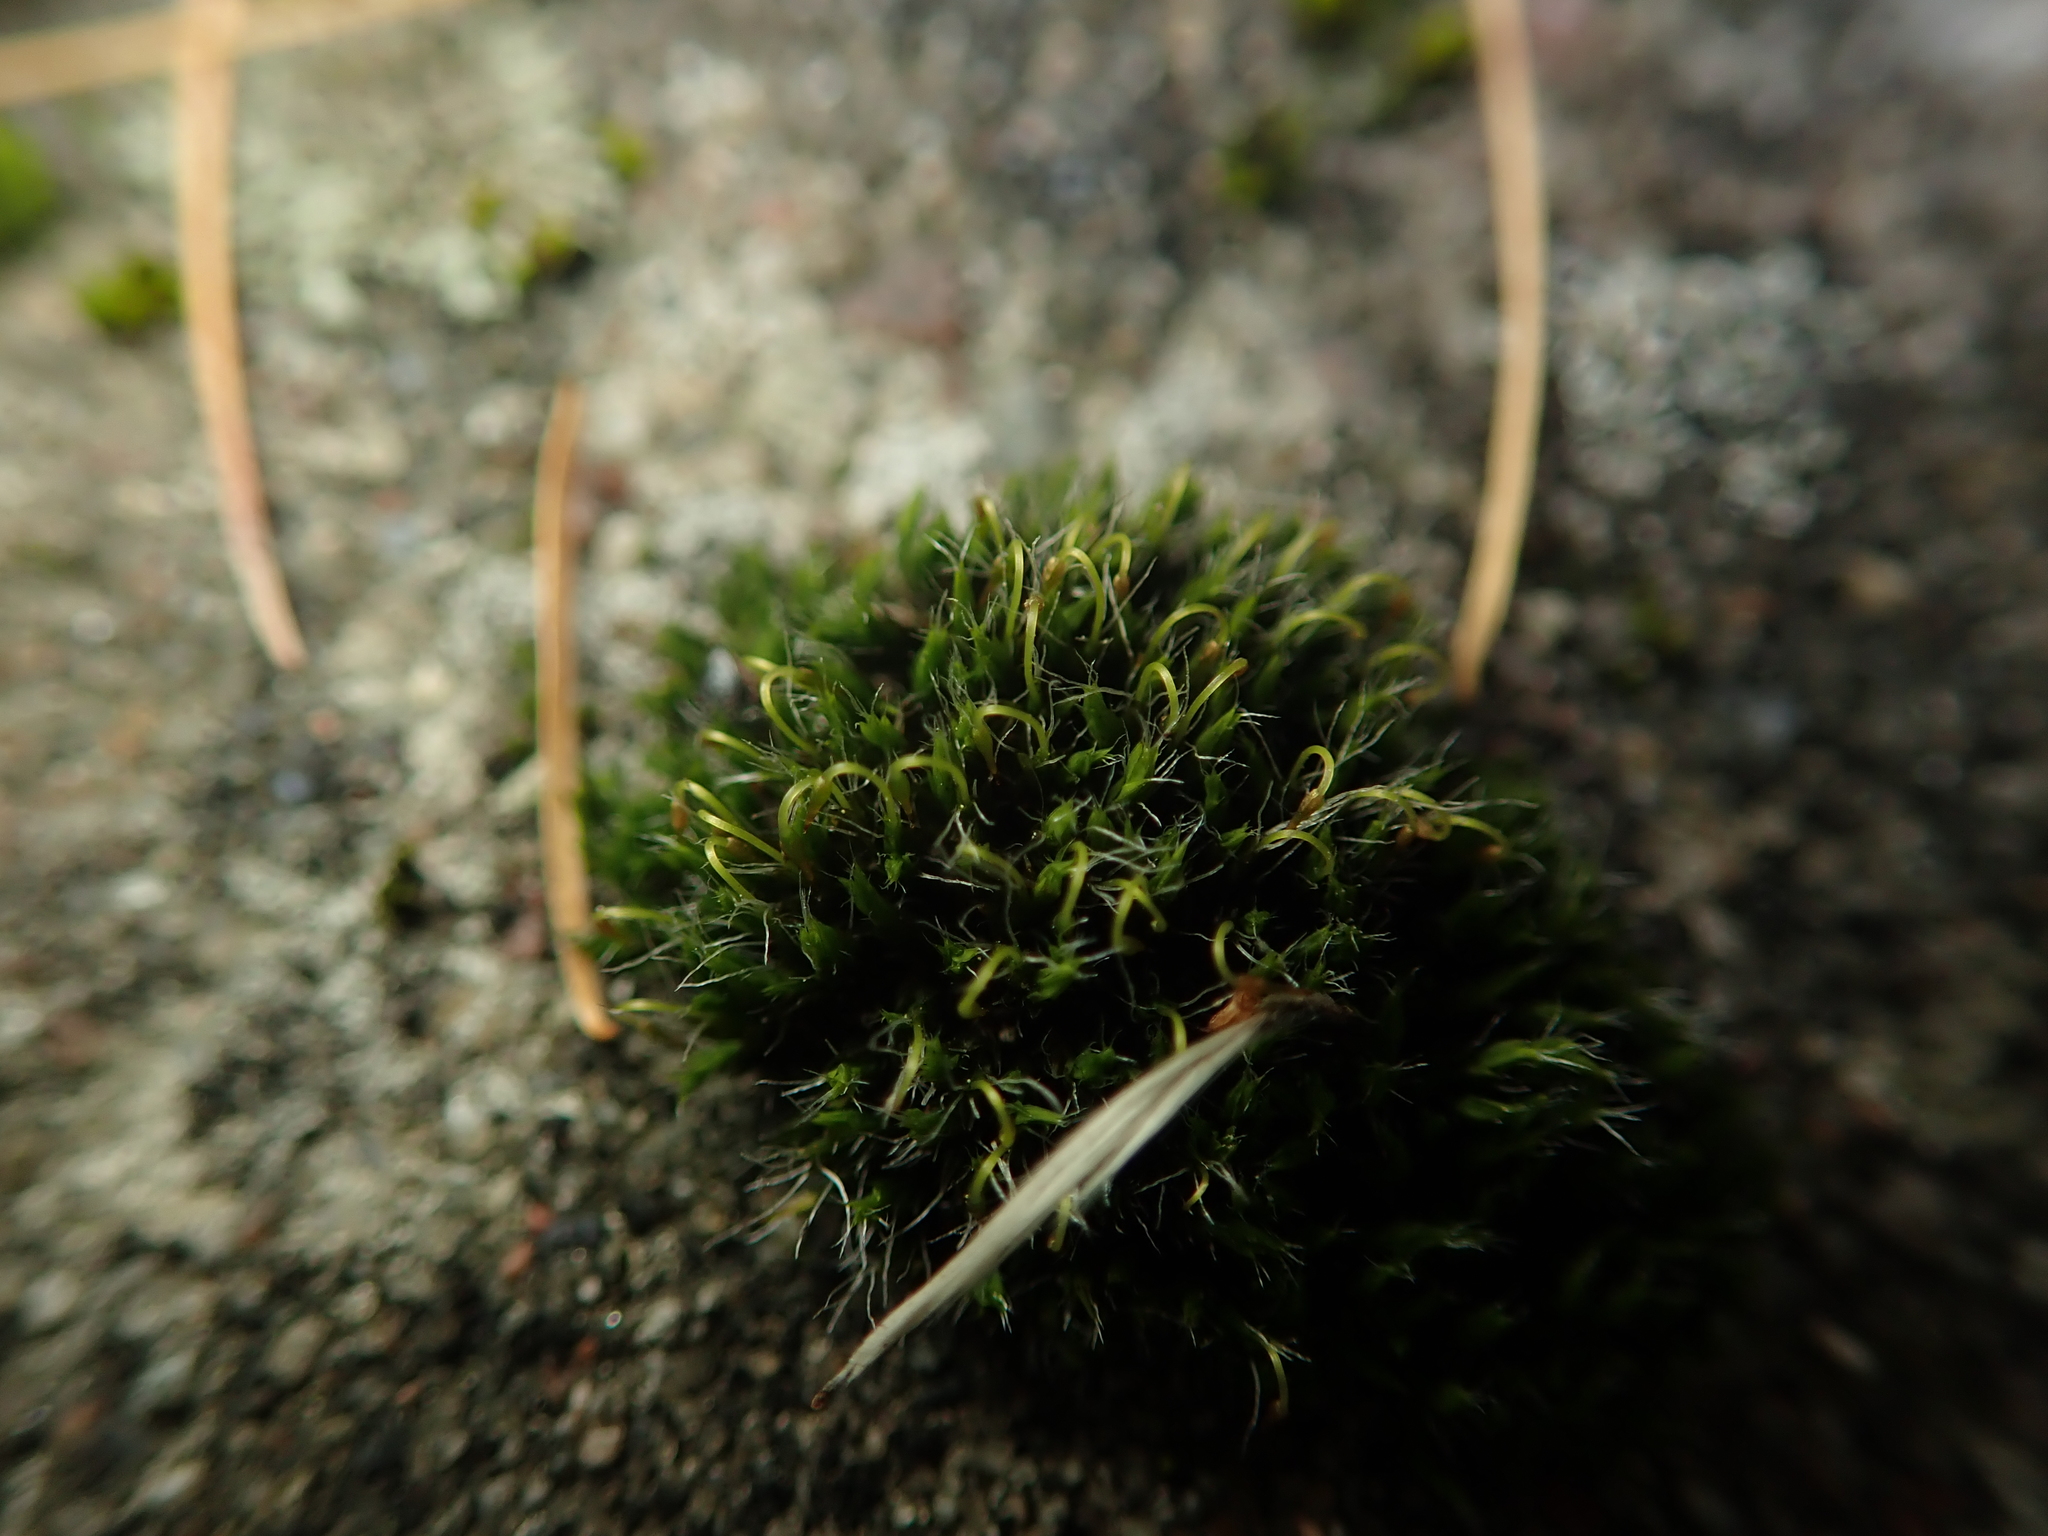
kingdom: Plantae
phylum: Bryophyta
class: Bryopsida
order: Grimmiales
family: Grimmiaceae
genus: Grimmia
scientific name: Grimmia pulvinata
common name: Grey-cushioned grimmia
